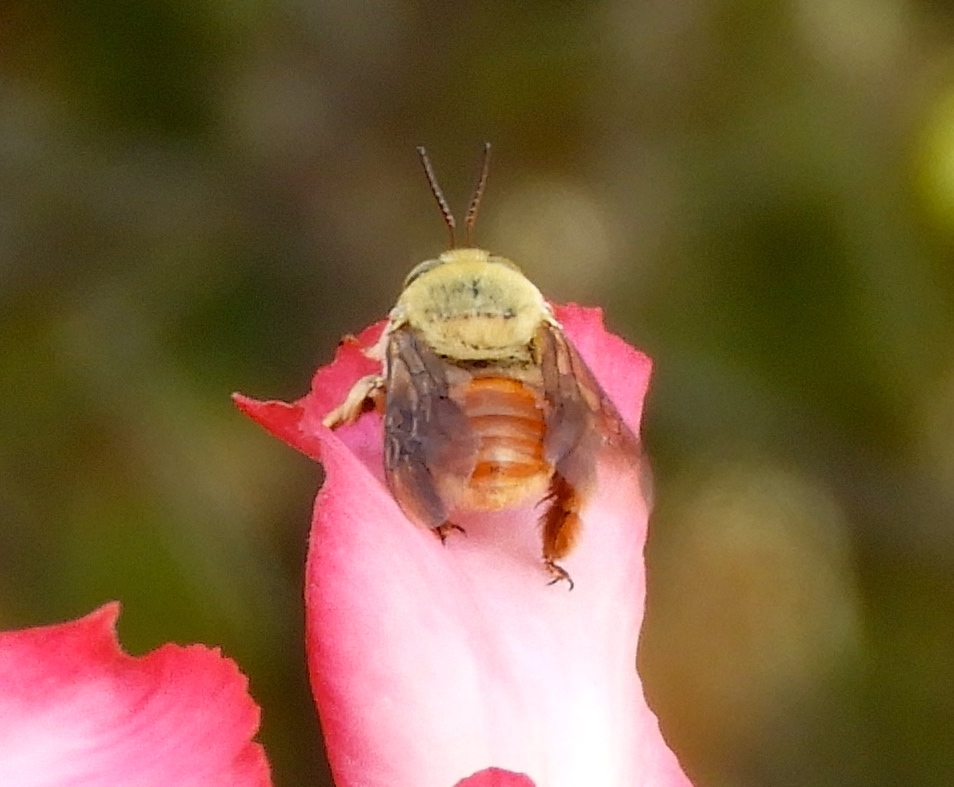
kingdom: Animalia
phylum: Arthropoda
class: Insecta
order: Hymenoptera
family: Apidae
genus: Centris
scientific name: Centris
